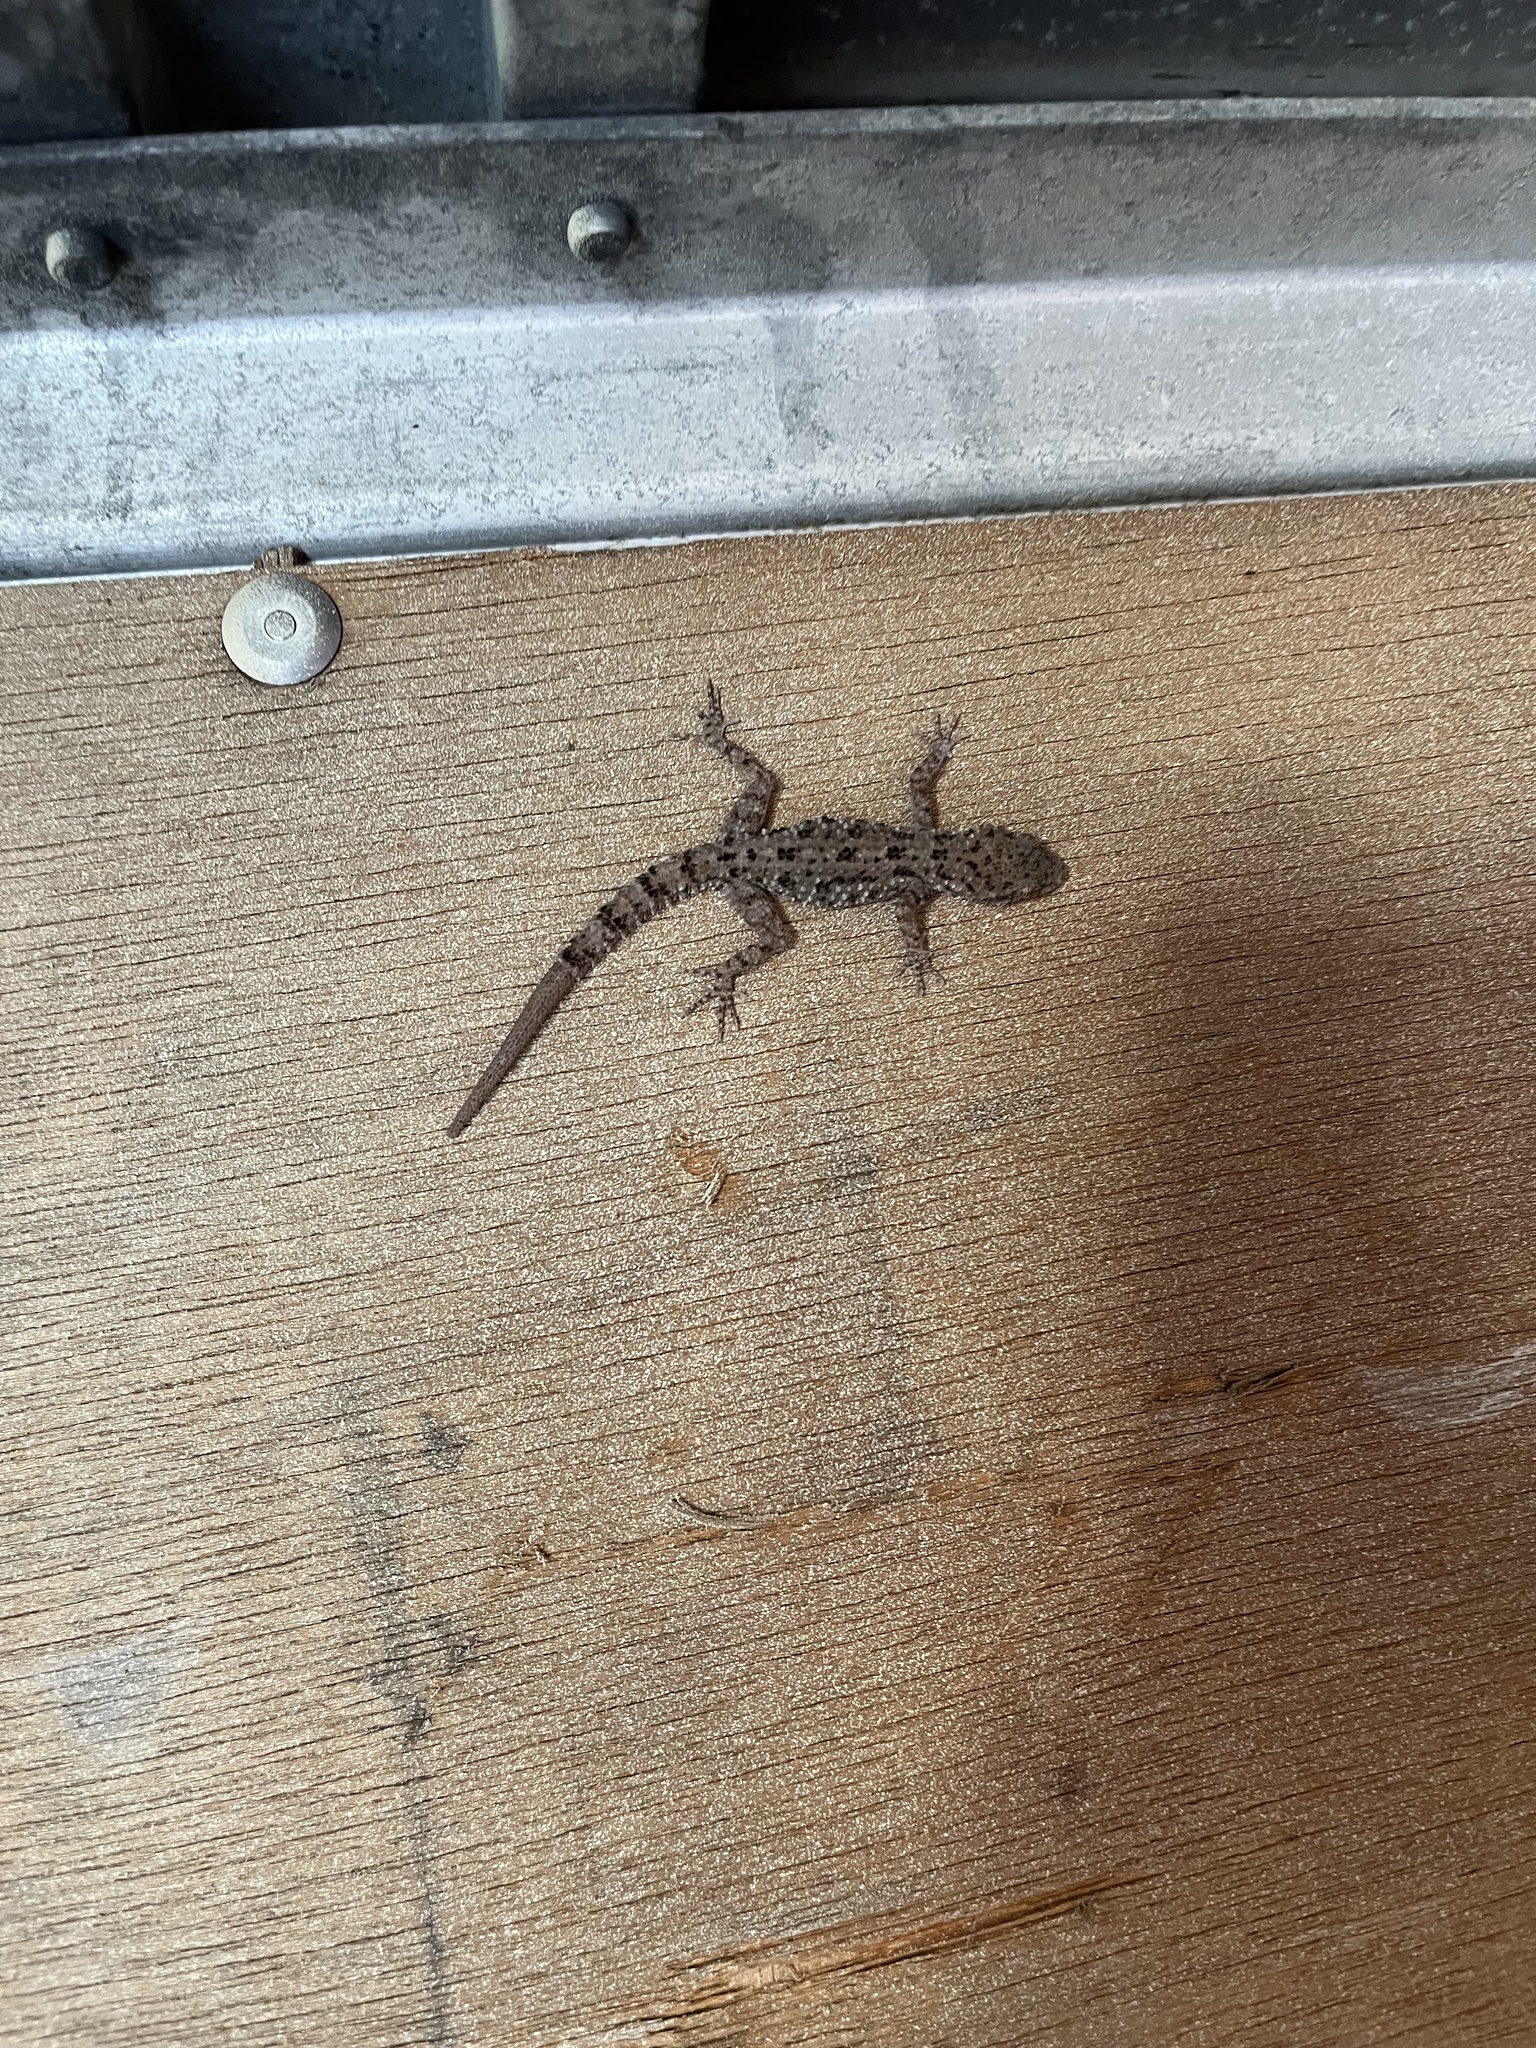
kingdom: Animalia
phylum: Chordata
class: Squamata
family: Gekkonidae
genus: Cyrtopodion
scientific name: Cyrtopodion scabrum
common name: Rough-tailed gecko
